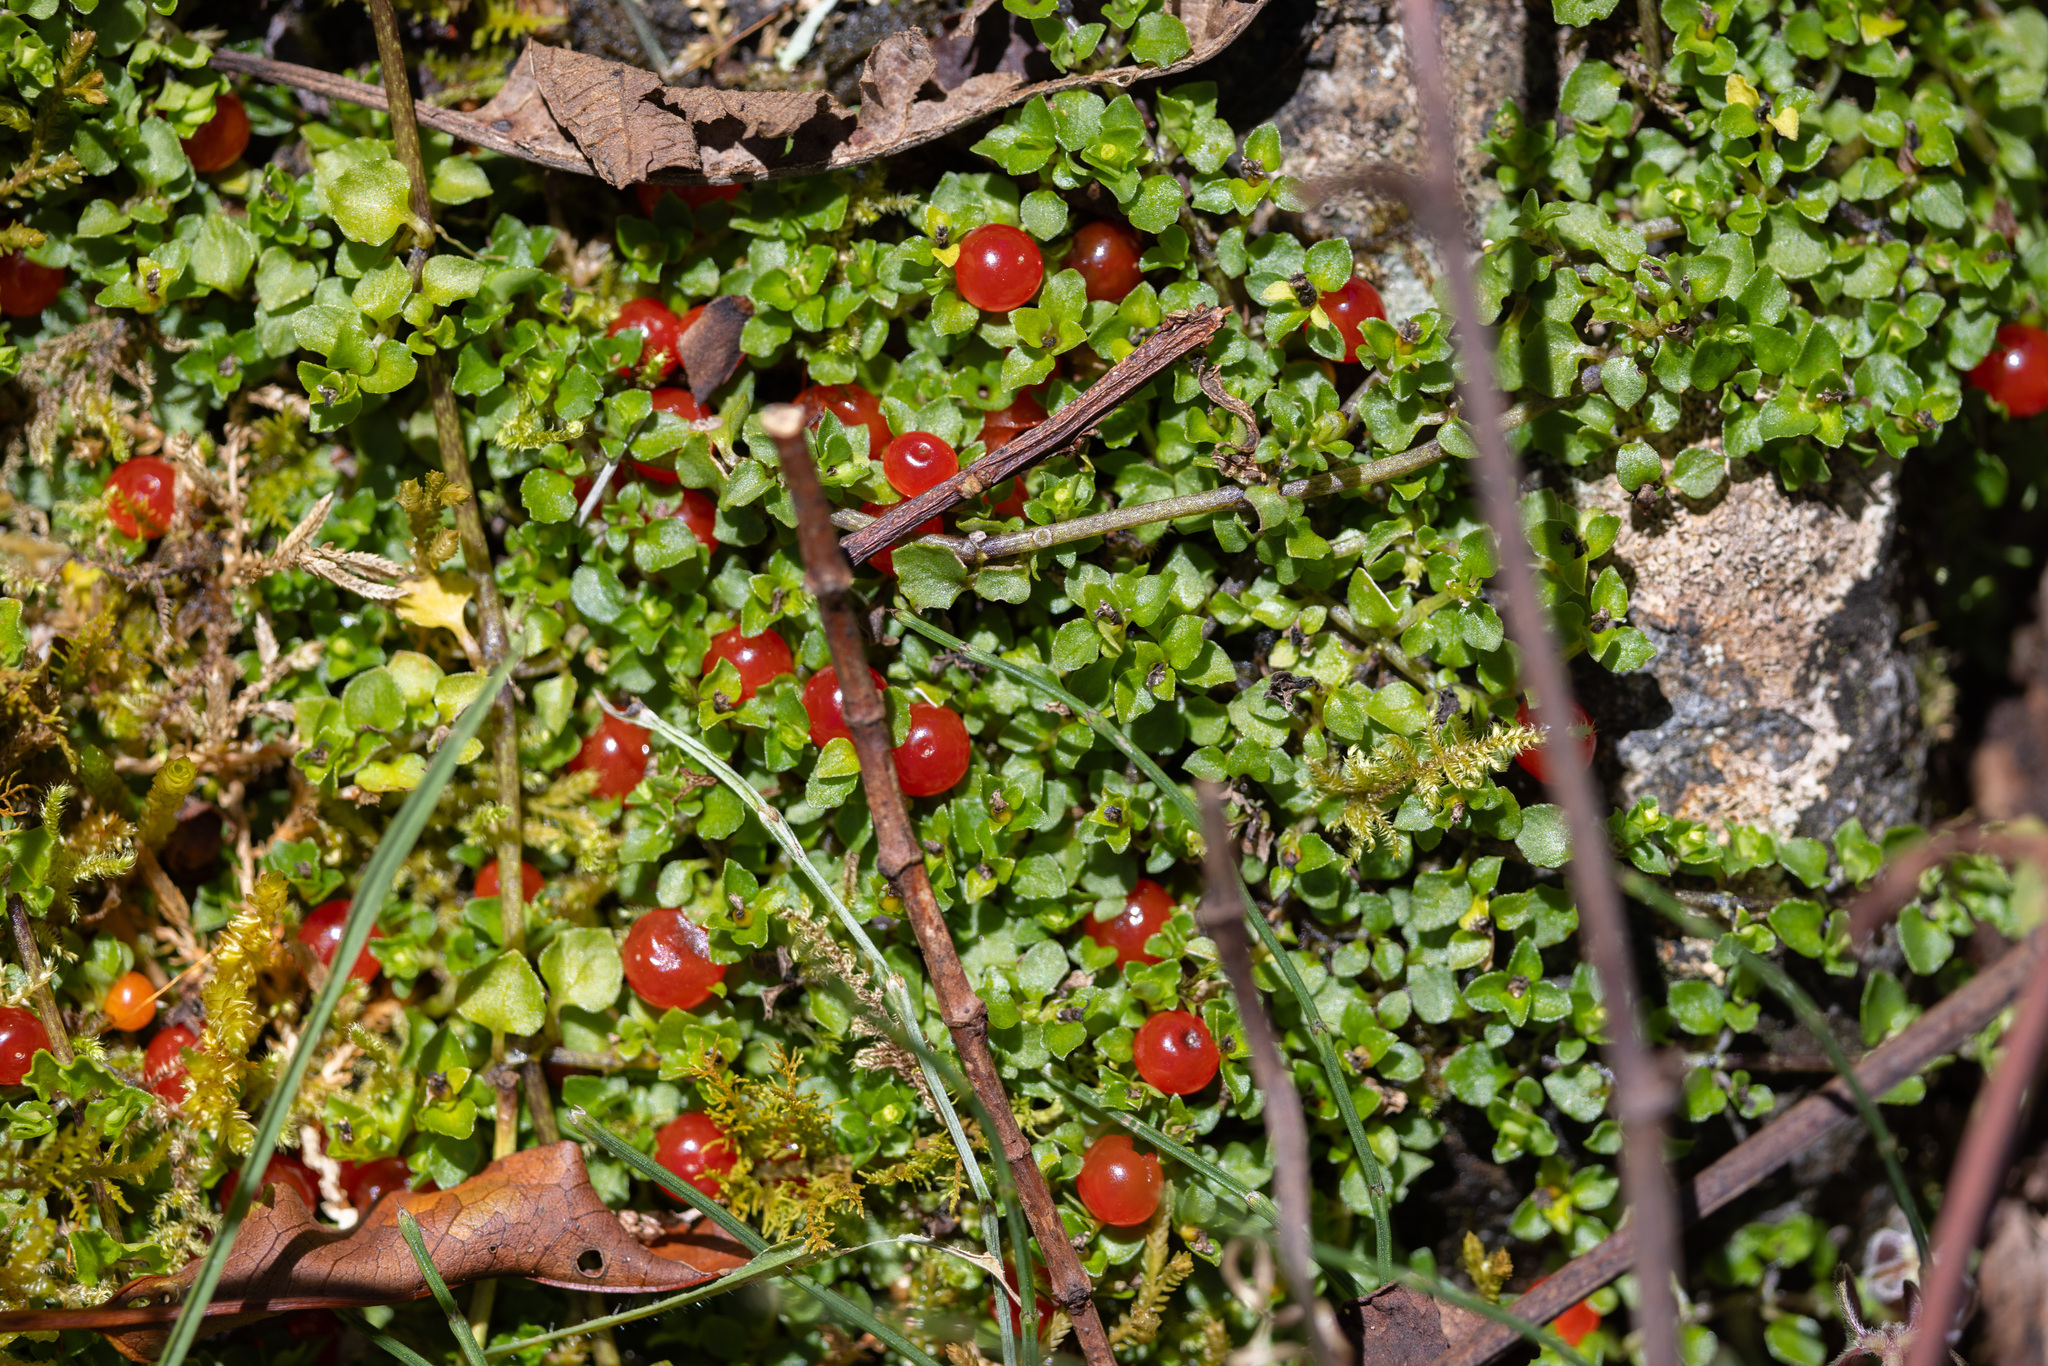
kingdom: Plantae
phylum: Tracheophyta
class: Magnoliopsida
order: Gentianales
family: Rubiaceae
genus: Nertera
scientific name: Nertera granadensis
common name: Beadplant
